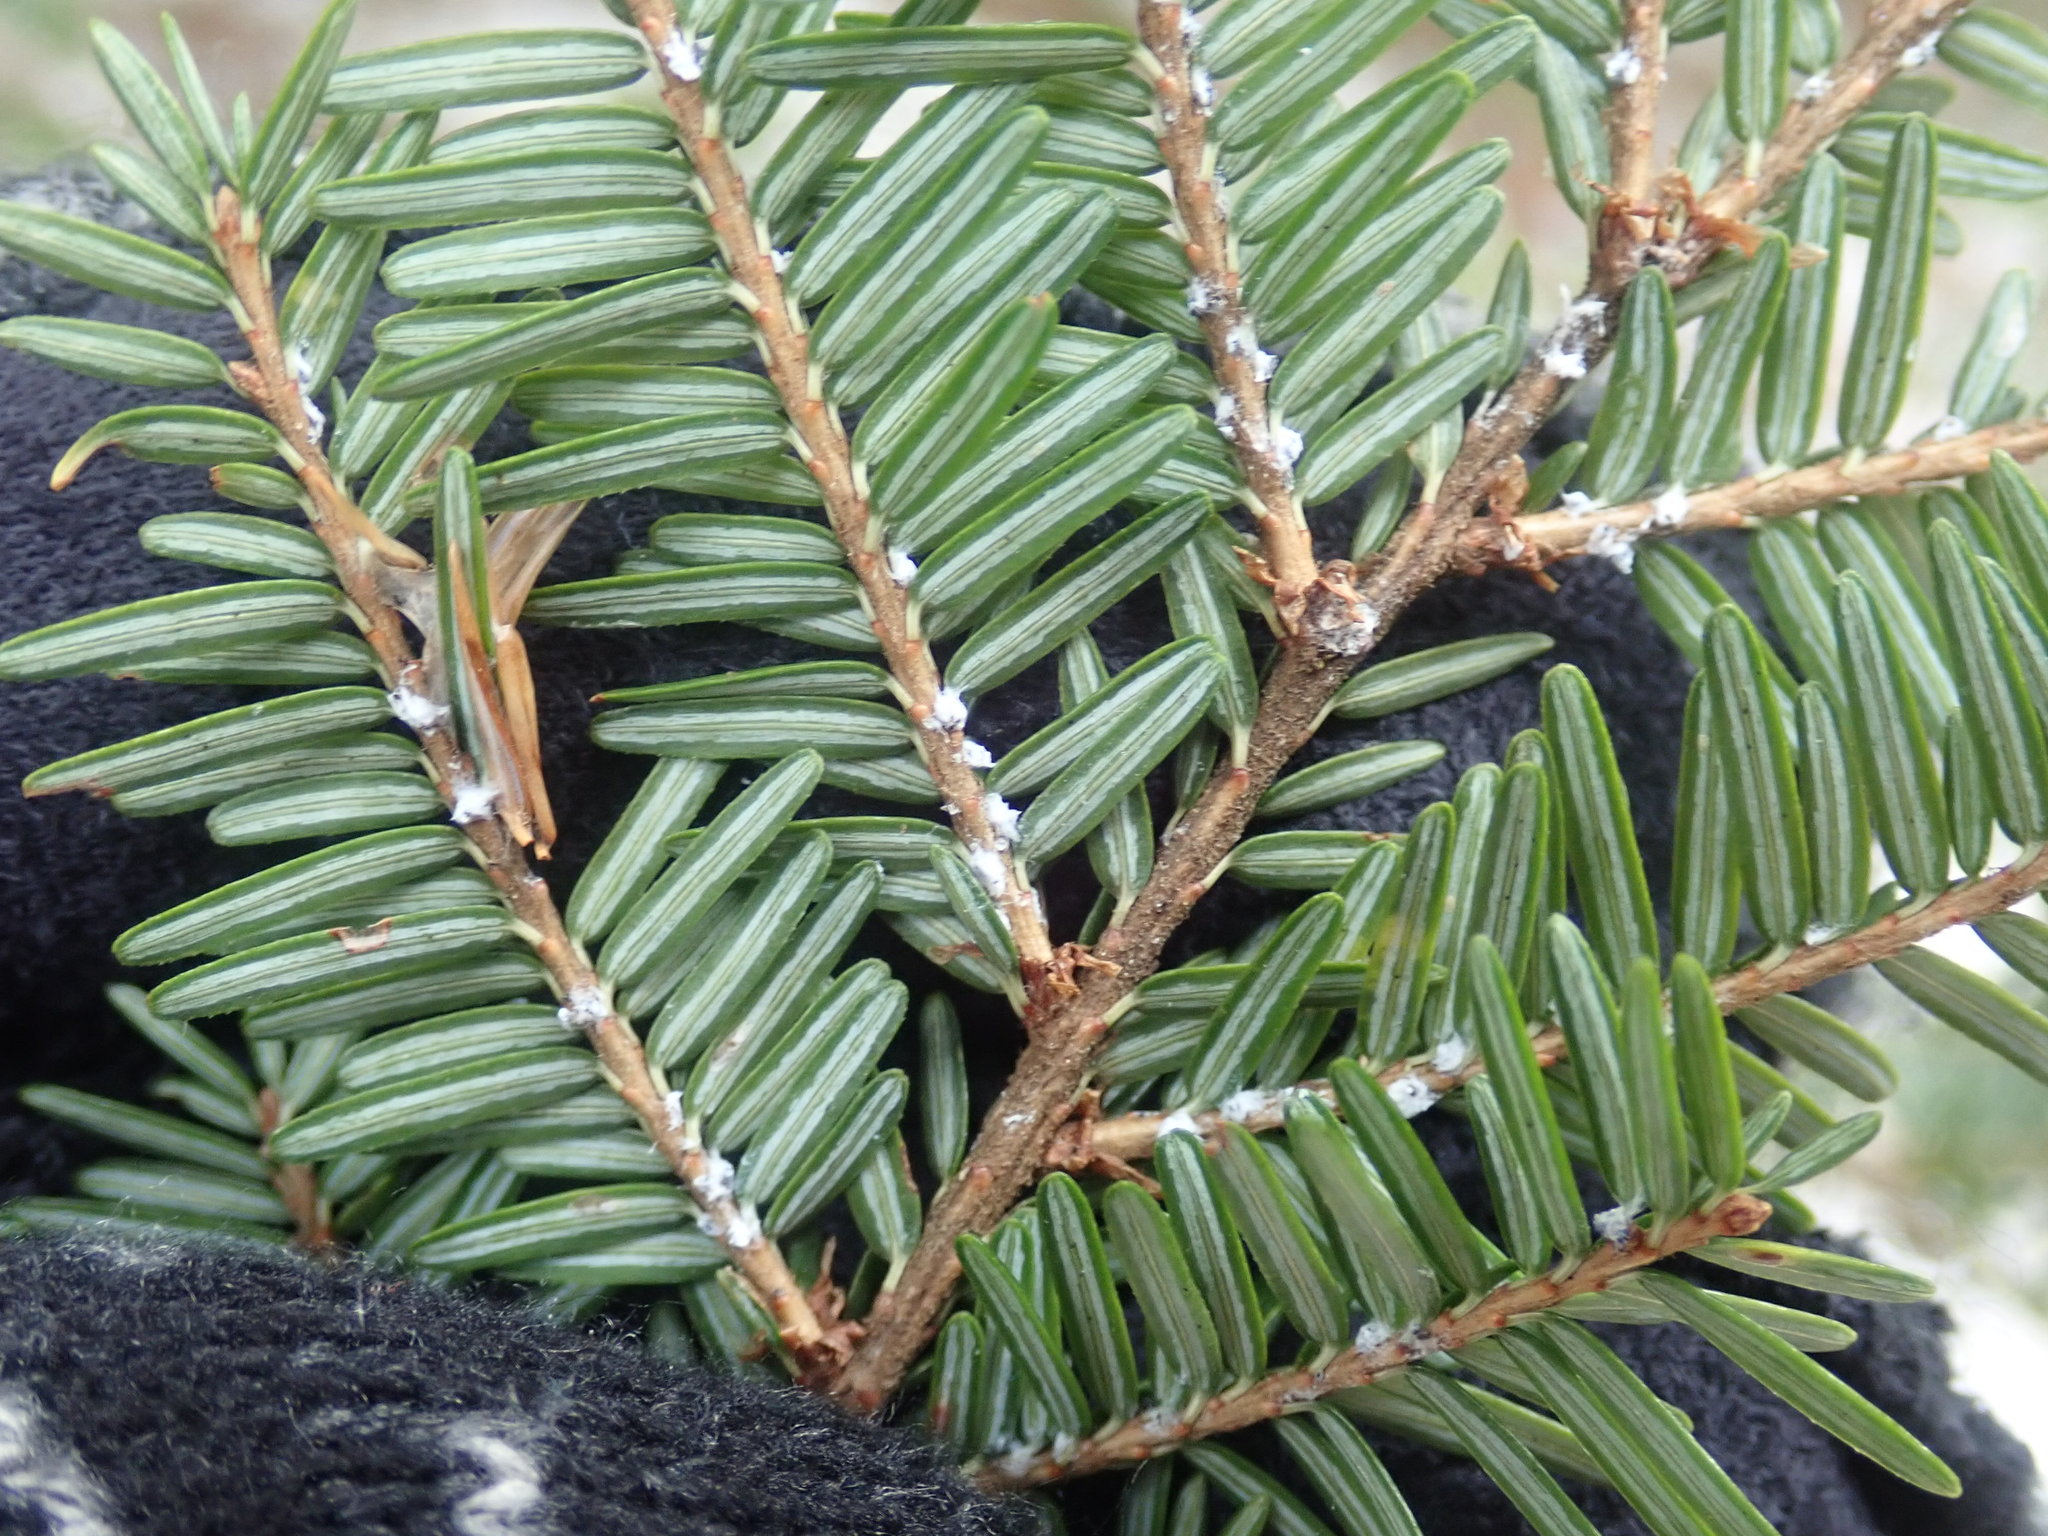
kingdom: Animalia
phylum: Arthropoda
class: Insecta
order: Hemiptera
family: Adelgidae
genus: Adelges
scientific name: Adelges tsugae
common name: Hemlock woolly adelgid
